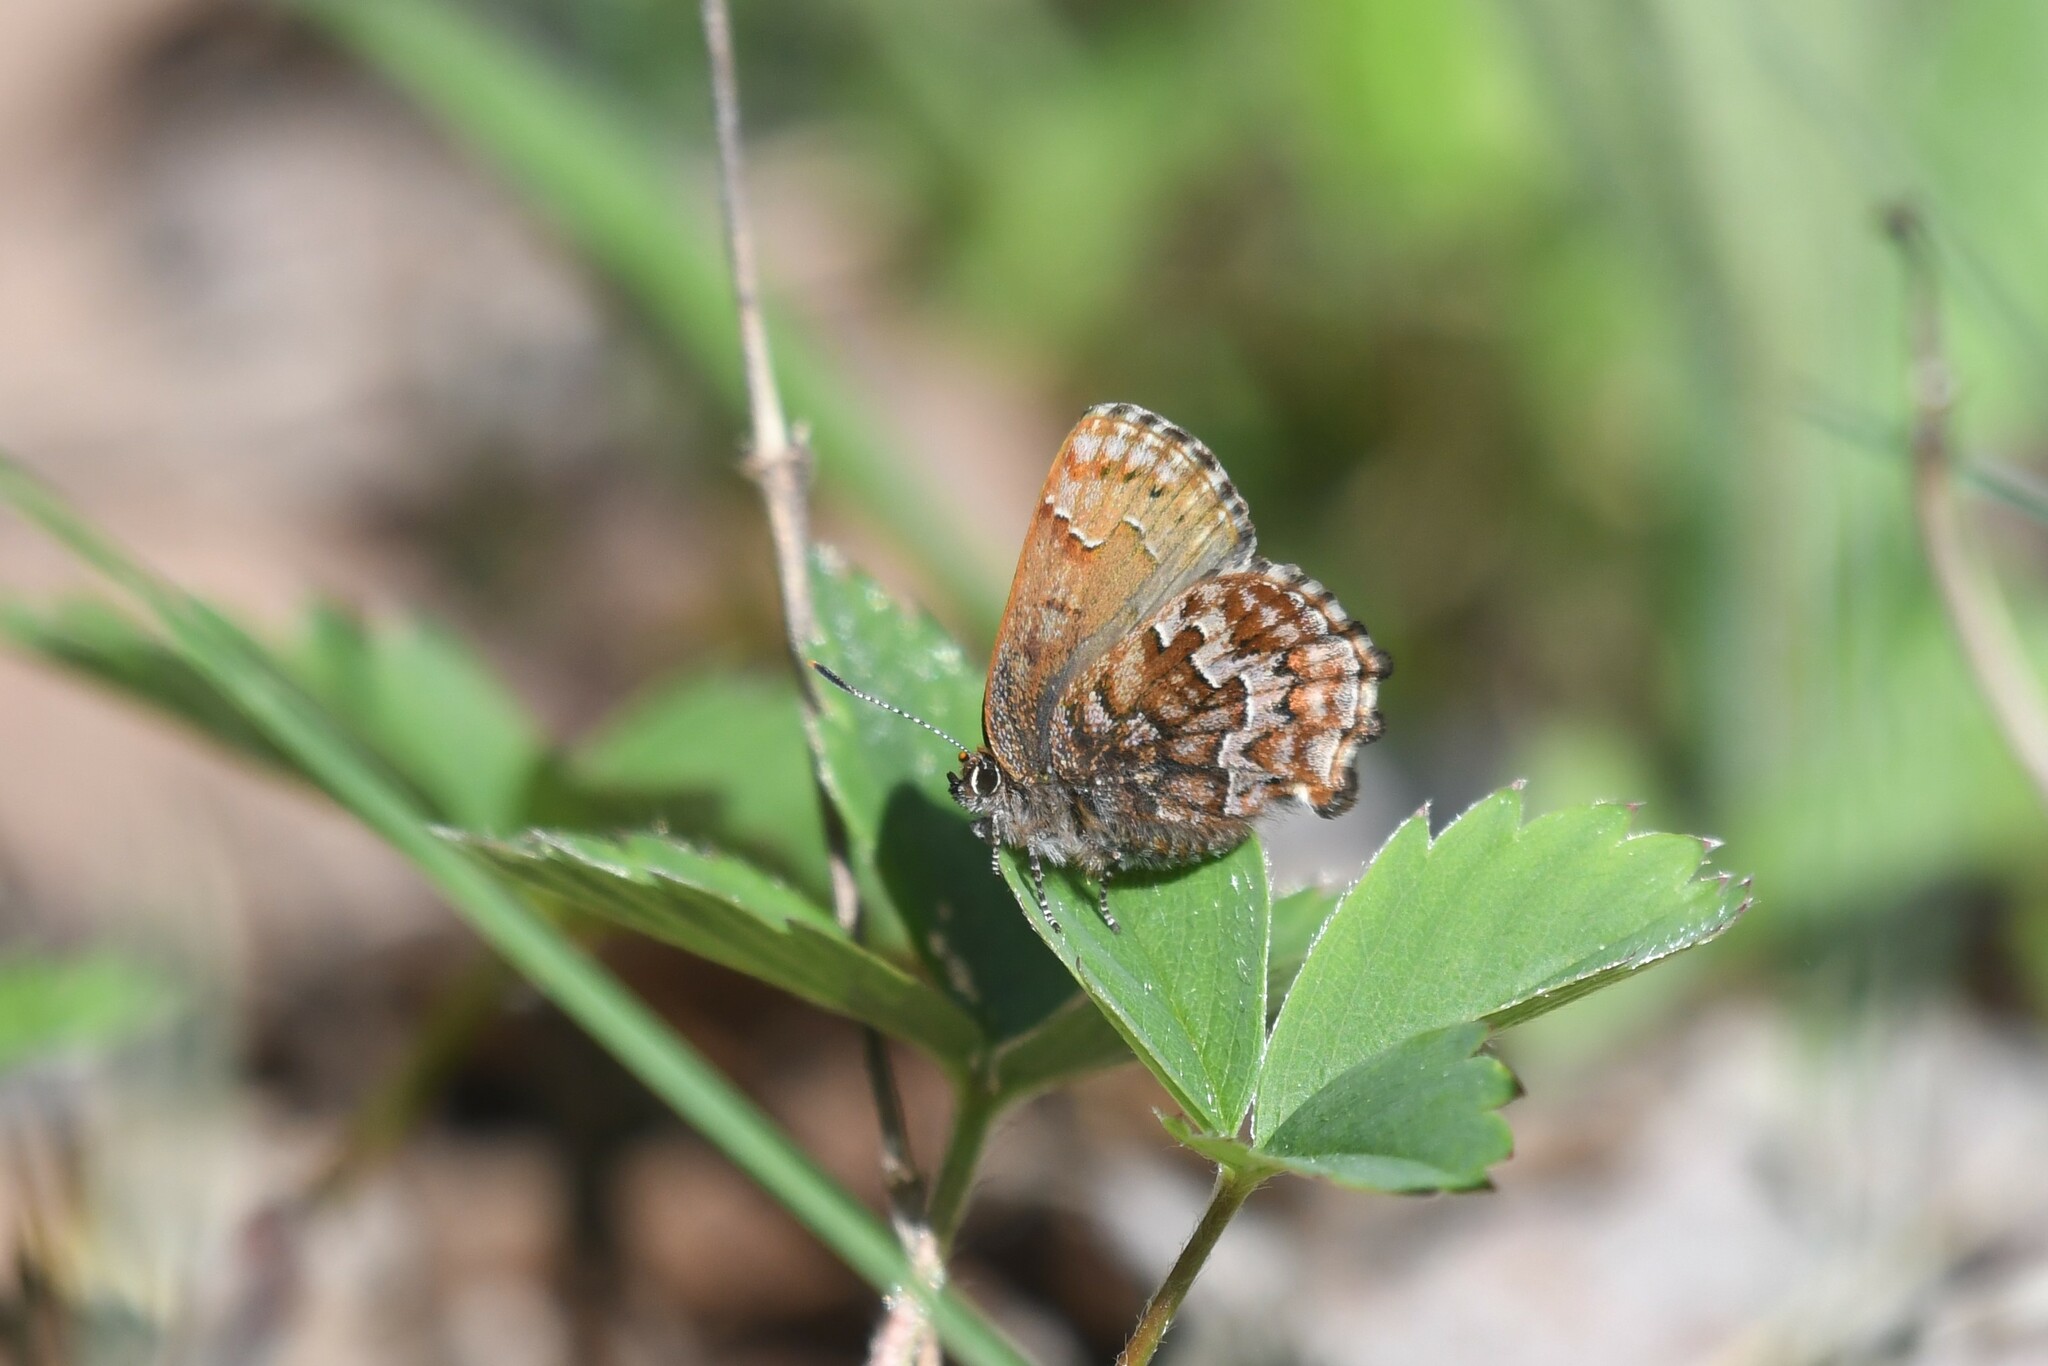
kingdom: Animalia
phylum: Arthropoda
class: Insecta
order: Lepidoptera
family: Lycaenidae
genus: Incisalia
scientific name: Incisalia niphon
